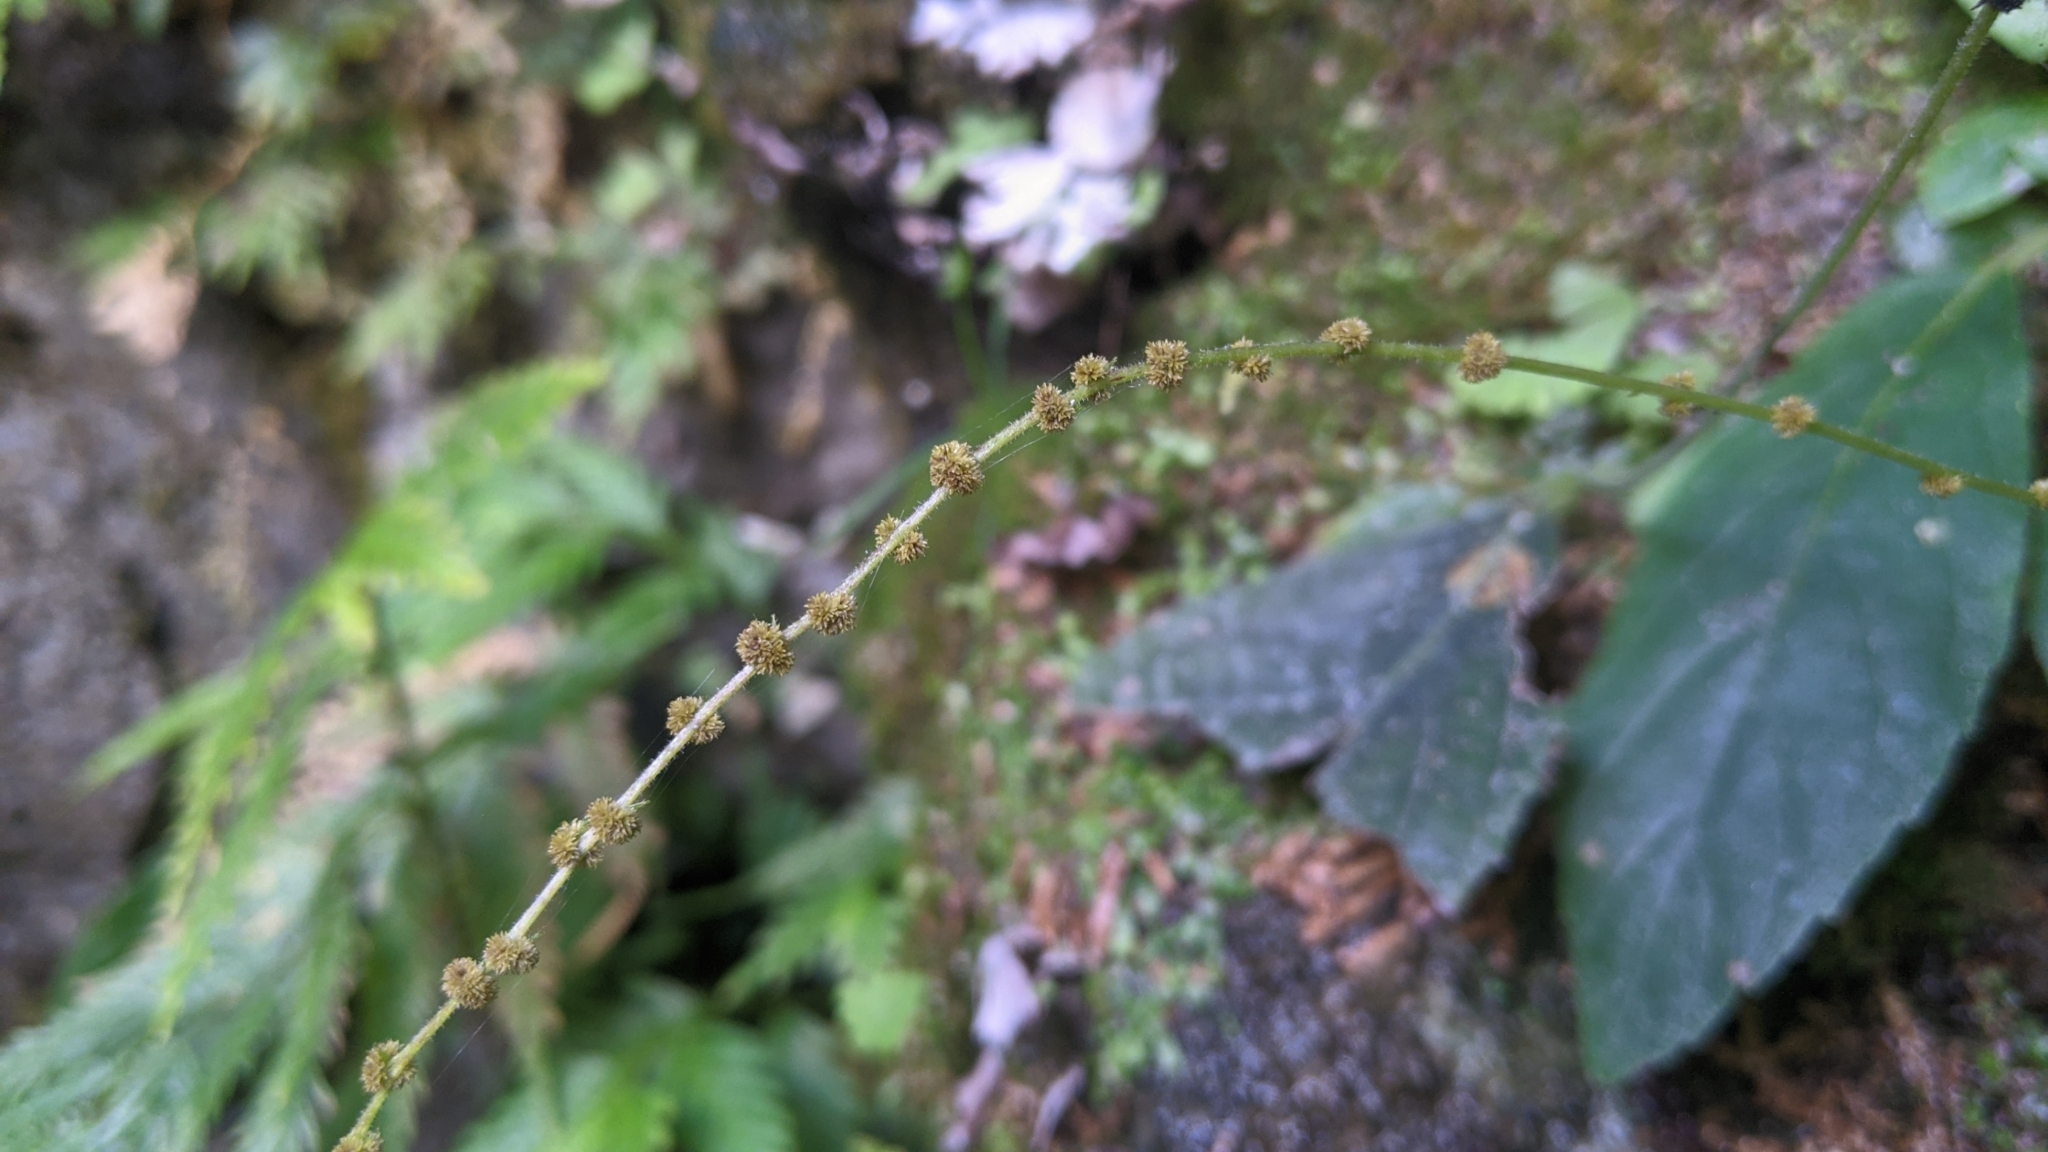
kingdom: Plantae
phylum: Tracheophyta
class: Magnoliopsida
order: Lamiales
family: Gesneriaceae
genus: Titanotrichum
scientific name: Titanotrichum oldhamii
